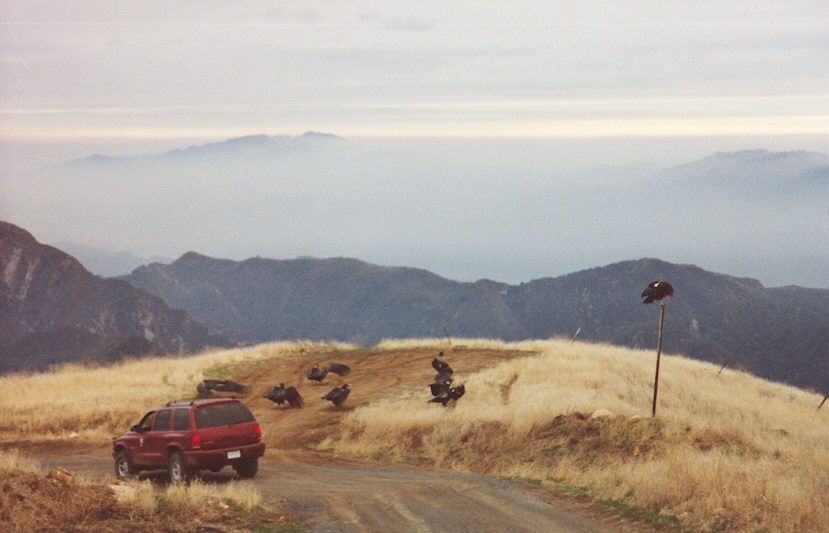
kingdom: Animalia
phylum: Chordata
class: Aves
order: Accipitriformes
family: Cathartidae
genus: Gymnogyps
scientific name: Gymnogyps californianus
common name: California condor
